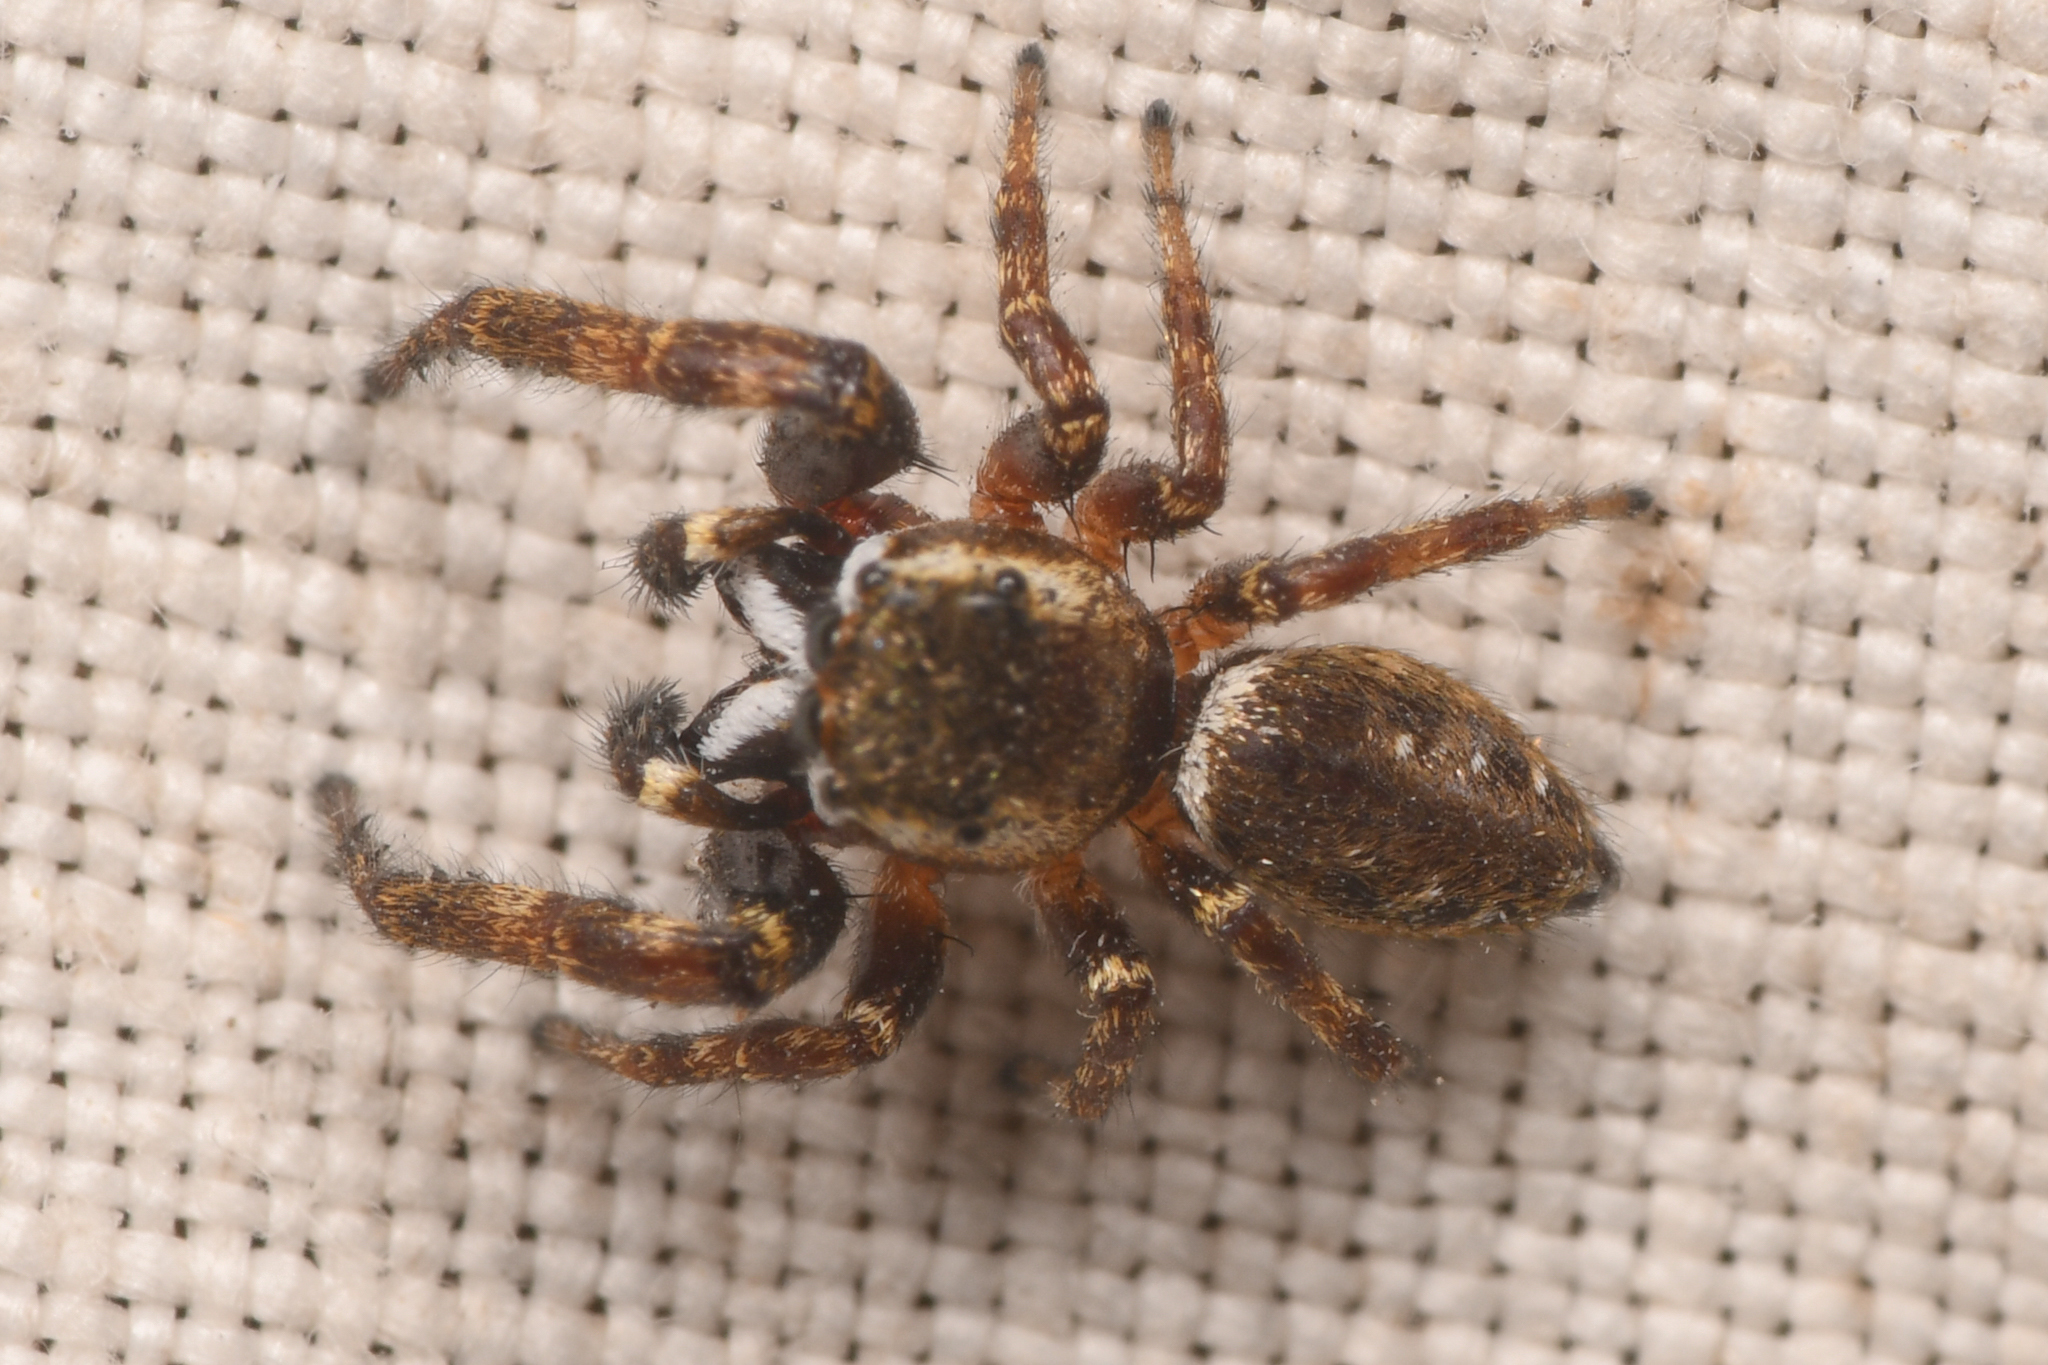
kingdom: Animalia
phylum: Arthropoda
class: Arachnida
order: Araneae
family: Salticidae
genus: Metaphidippus
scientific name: Metaphidippus manni
